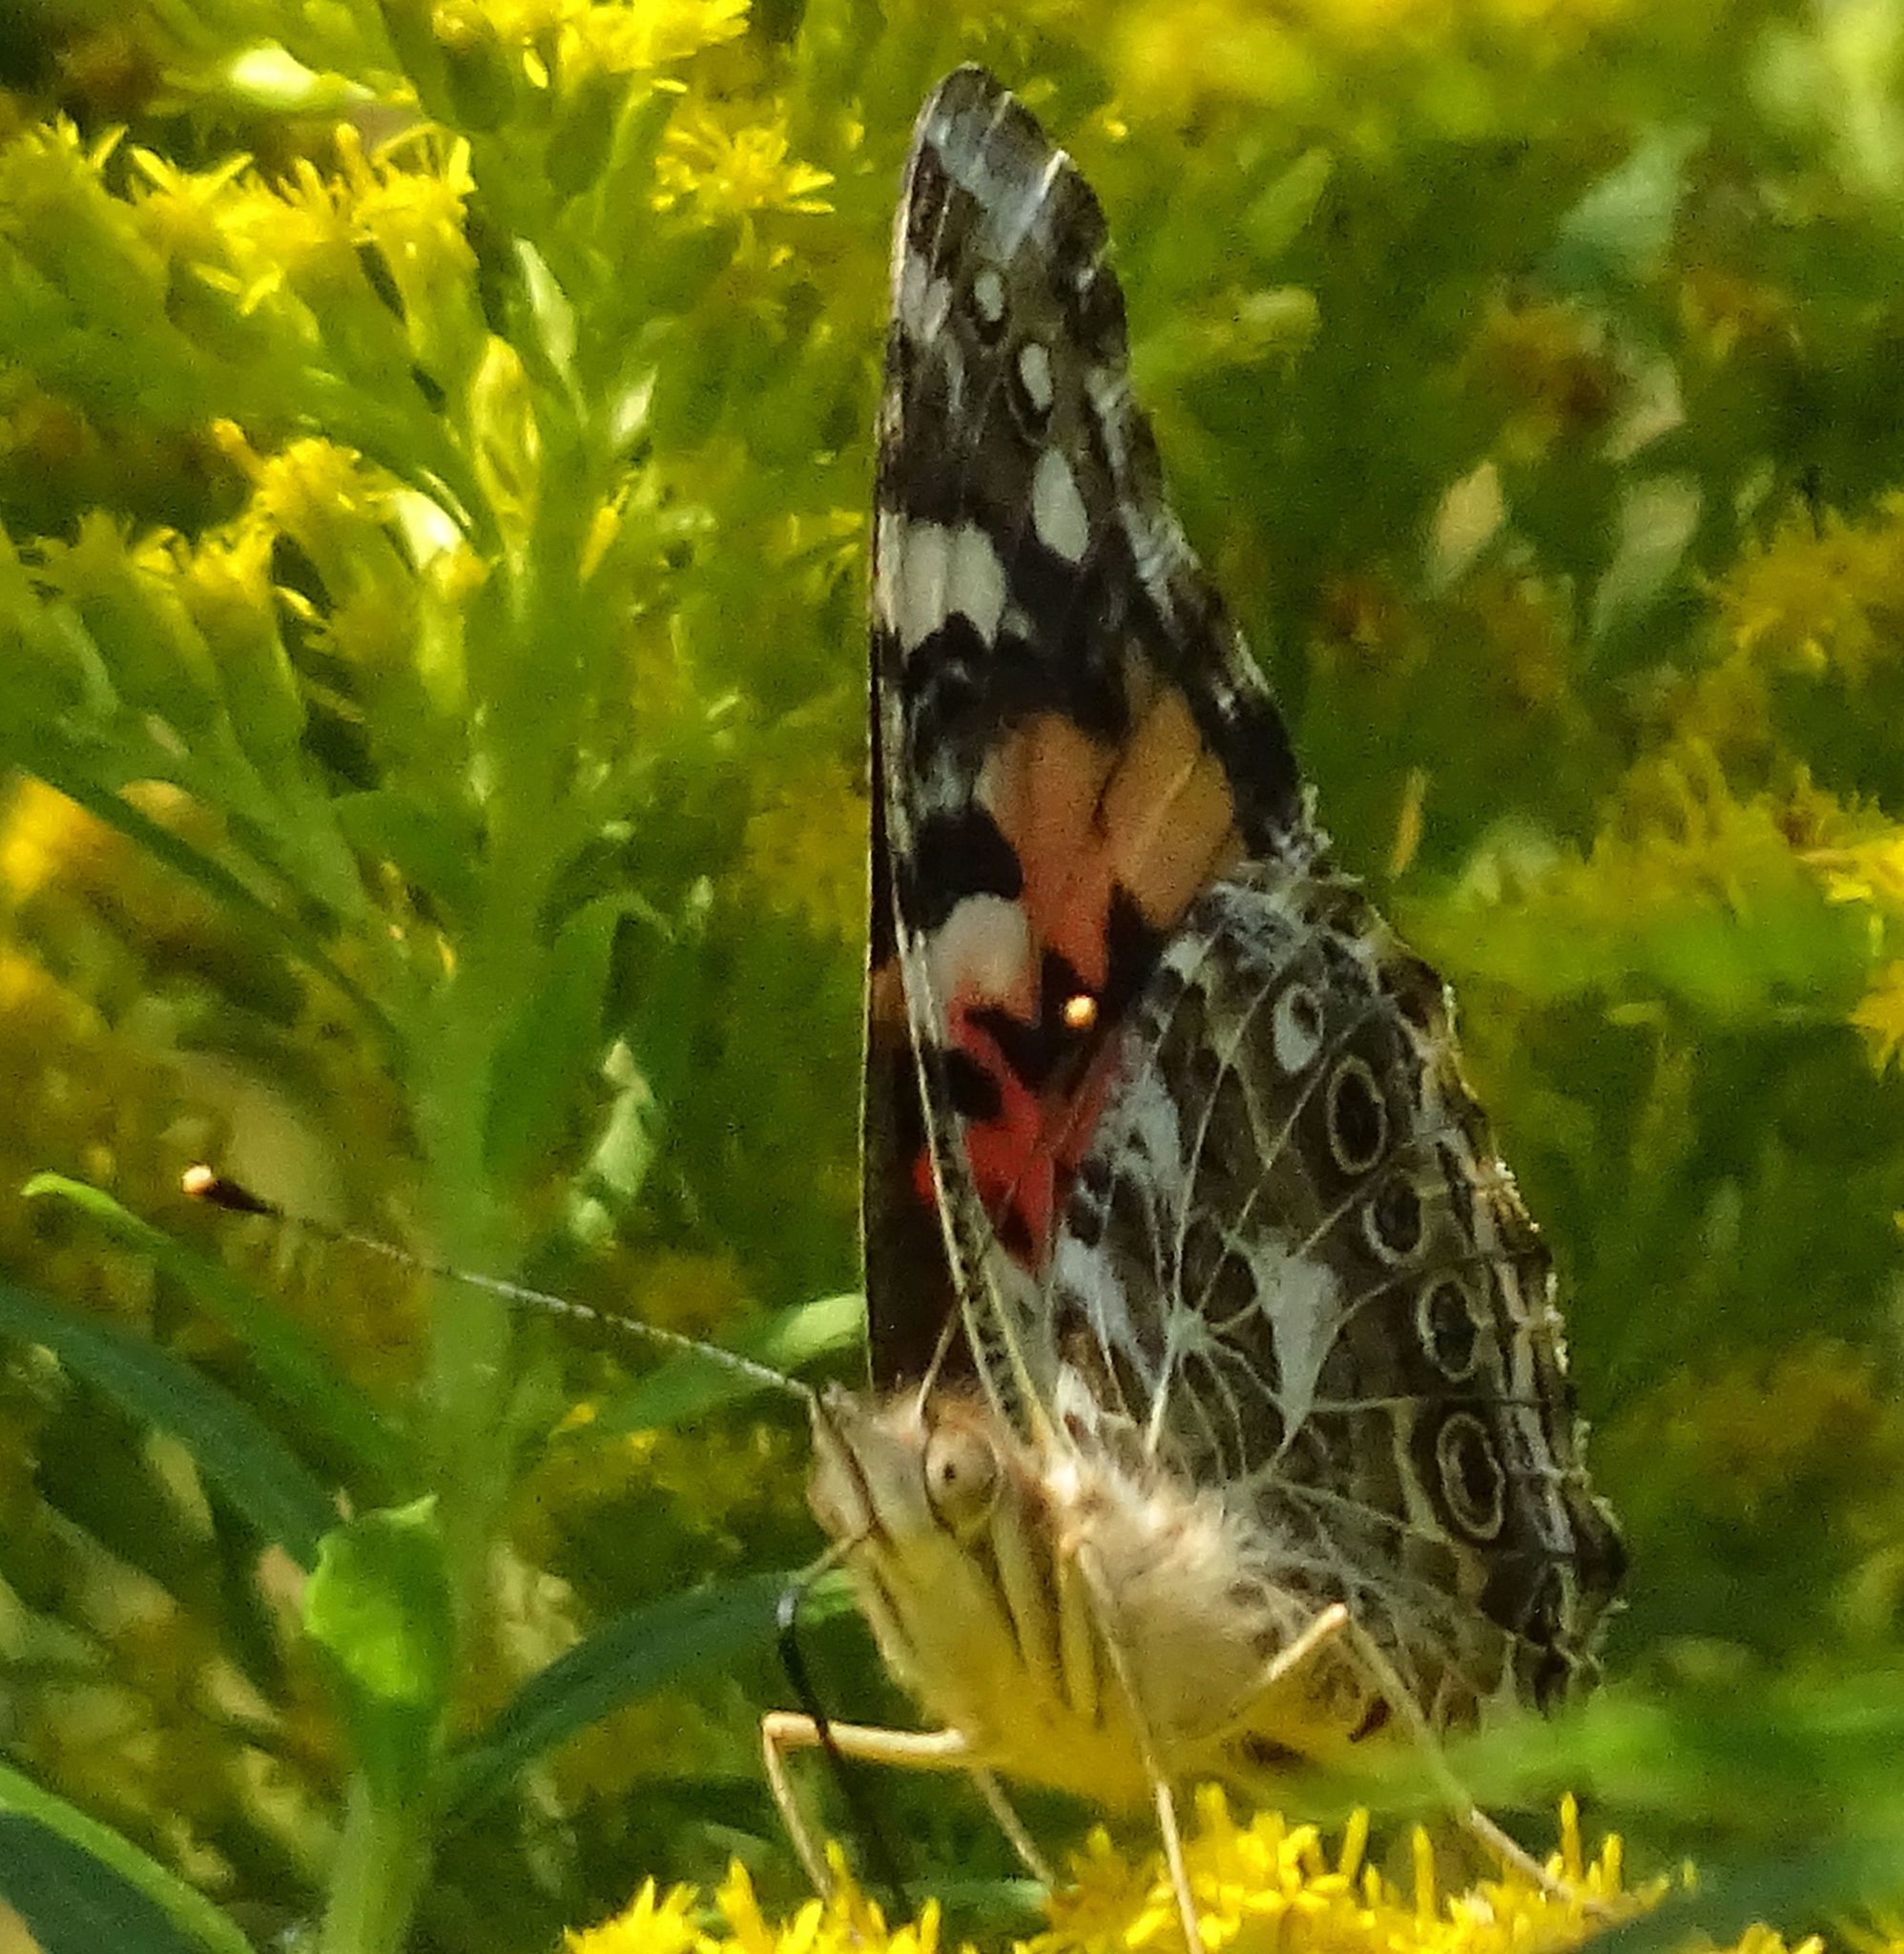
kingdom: Animalia
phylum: Arthropoda
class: Insecta
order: Lepidoptera
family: Nymphalidae
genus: Vanessa
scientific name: Vanessa cardui
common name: Painted lady
